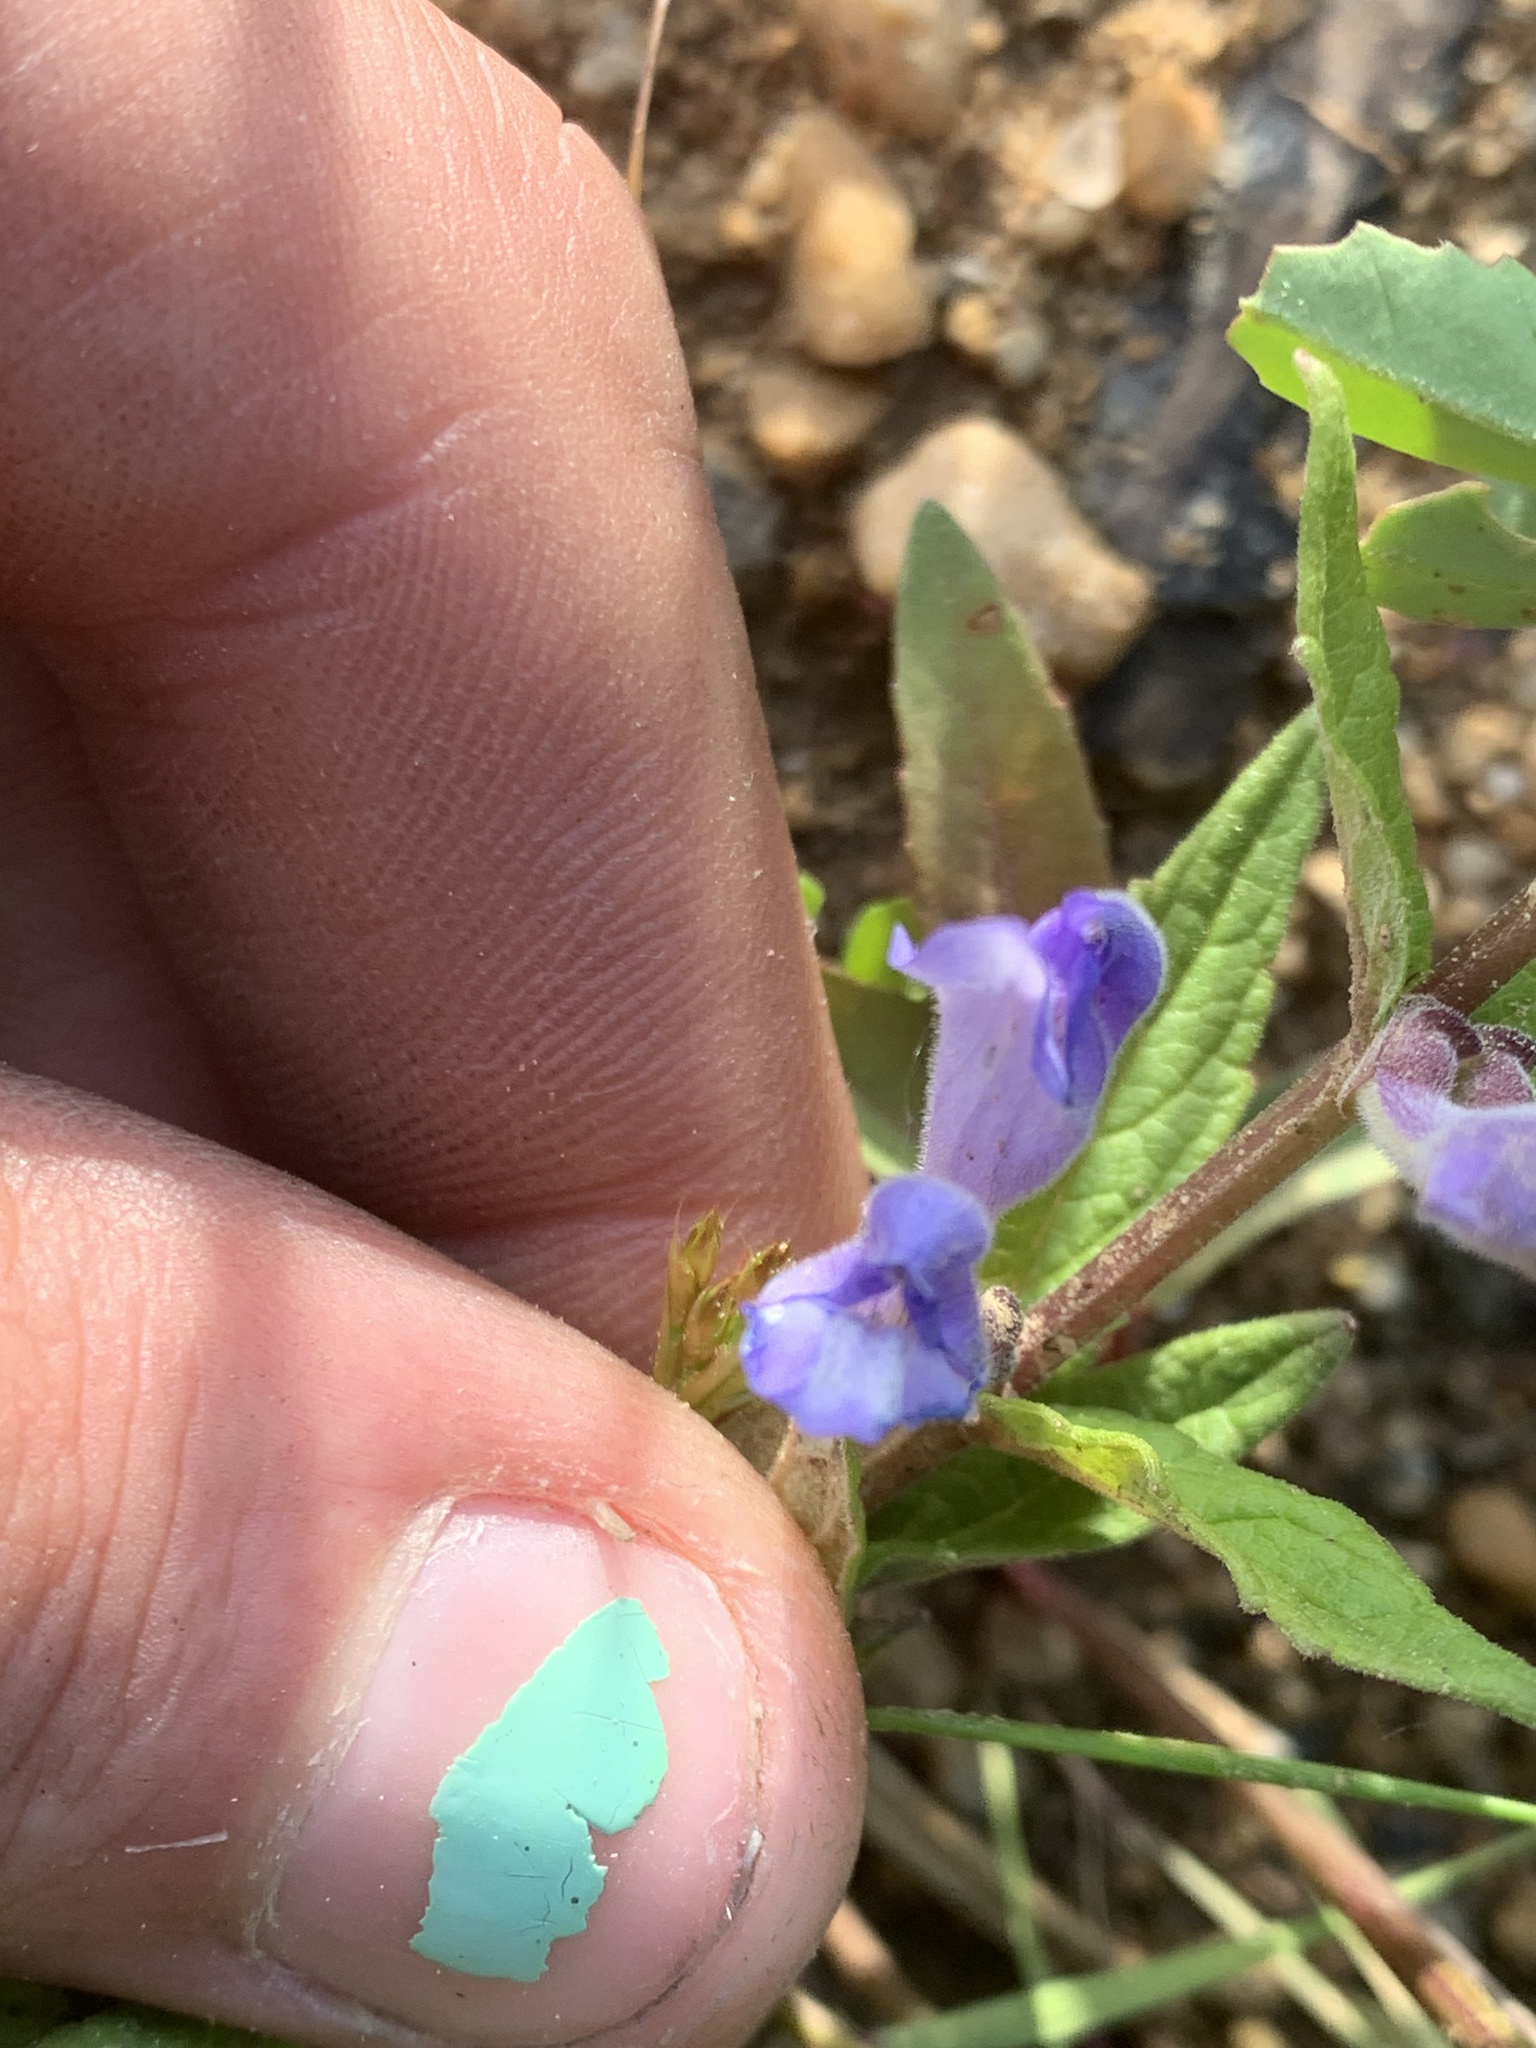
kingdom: Plantae
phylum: Tracheophyta
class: Magnoliopsida
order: Lamiales
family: Lamiaceae
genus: Scutellaria
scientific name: Scutellaria galericulata
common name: Skullcap
